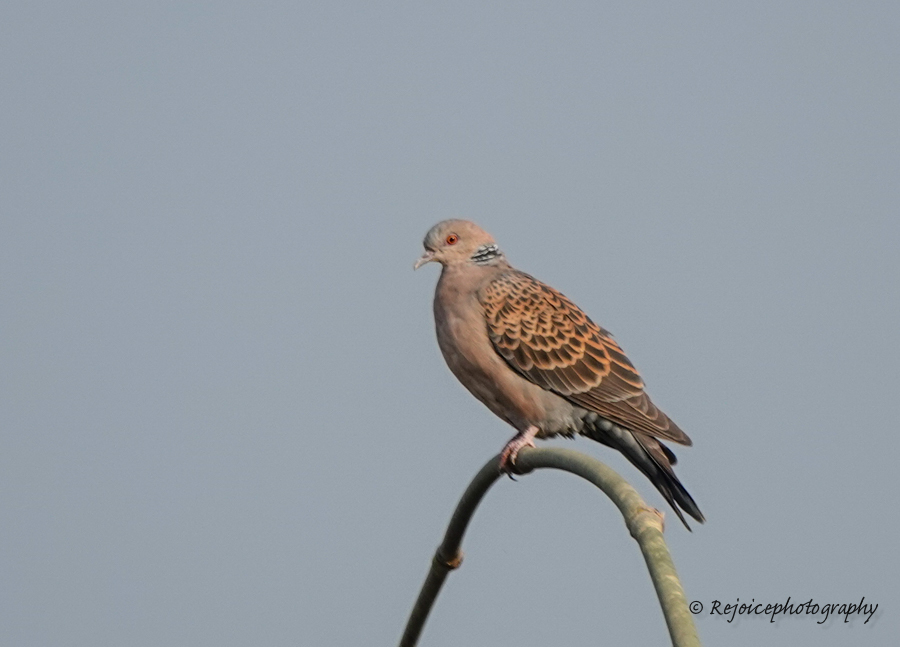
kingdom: Animalia
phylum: Chordata
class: Aves
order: Columbiformes
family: Columbidae
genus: Streptopelia
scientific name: Streptopelia orientalis
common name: Oriental turtle dove
